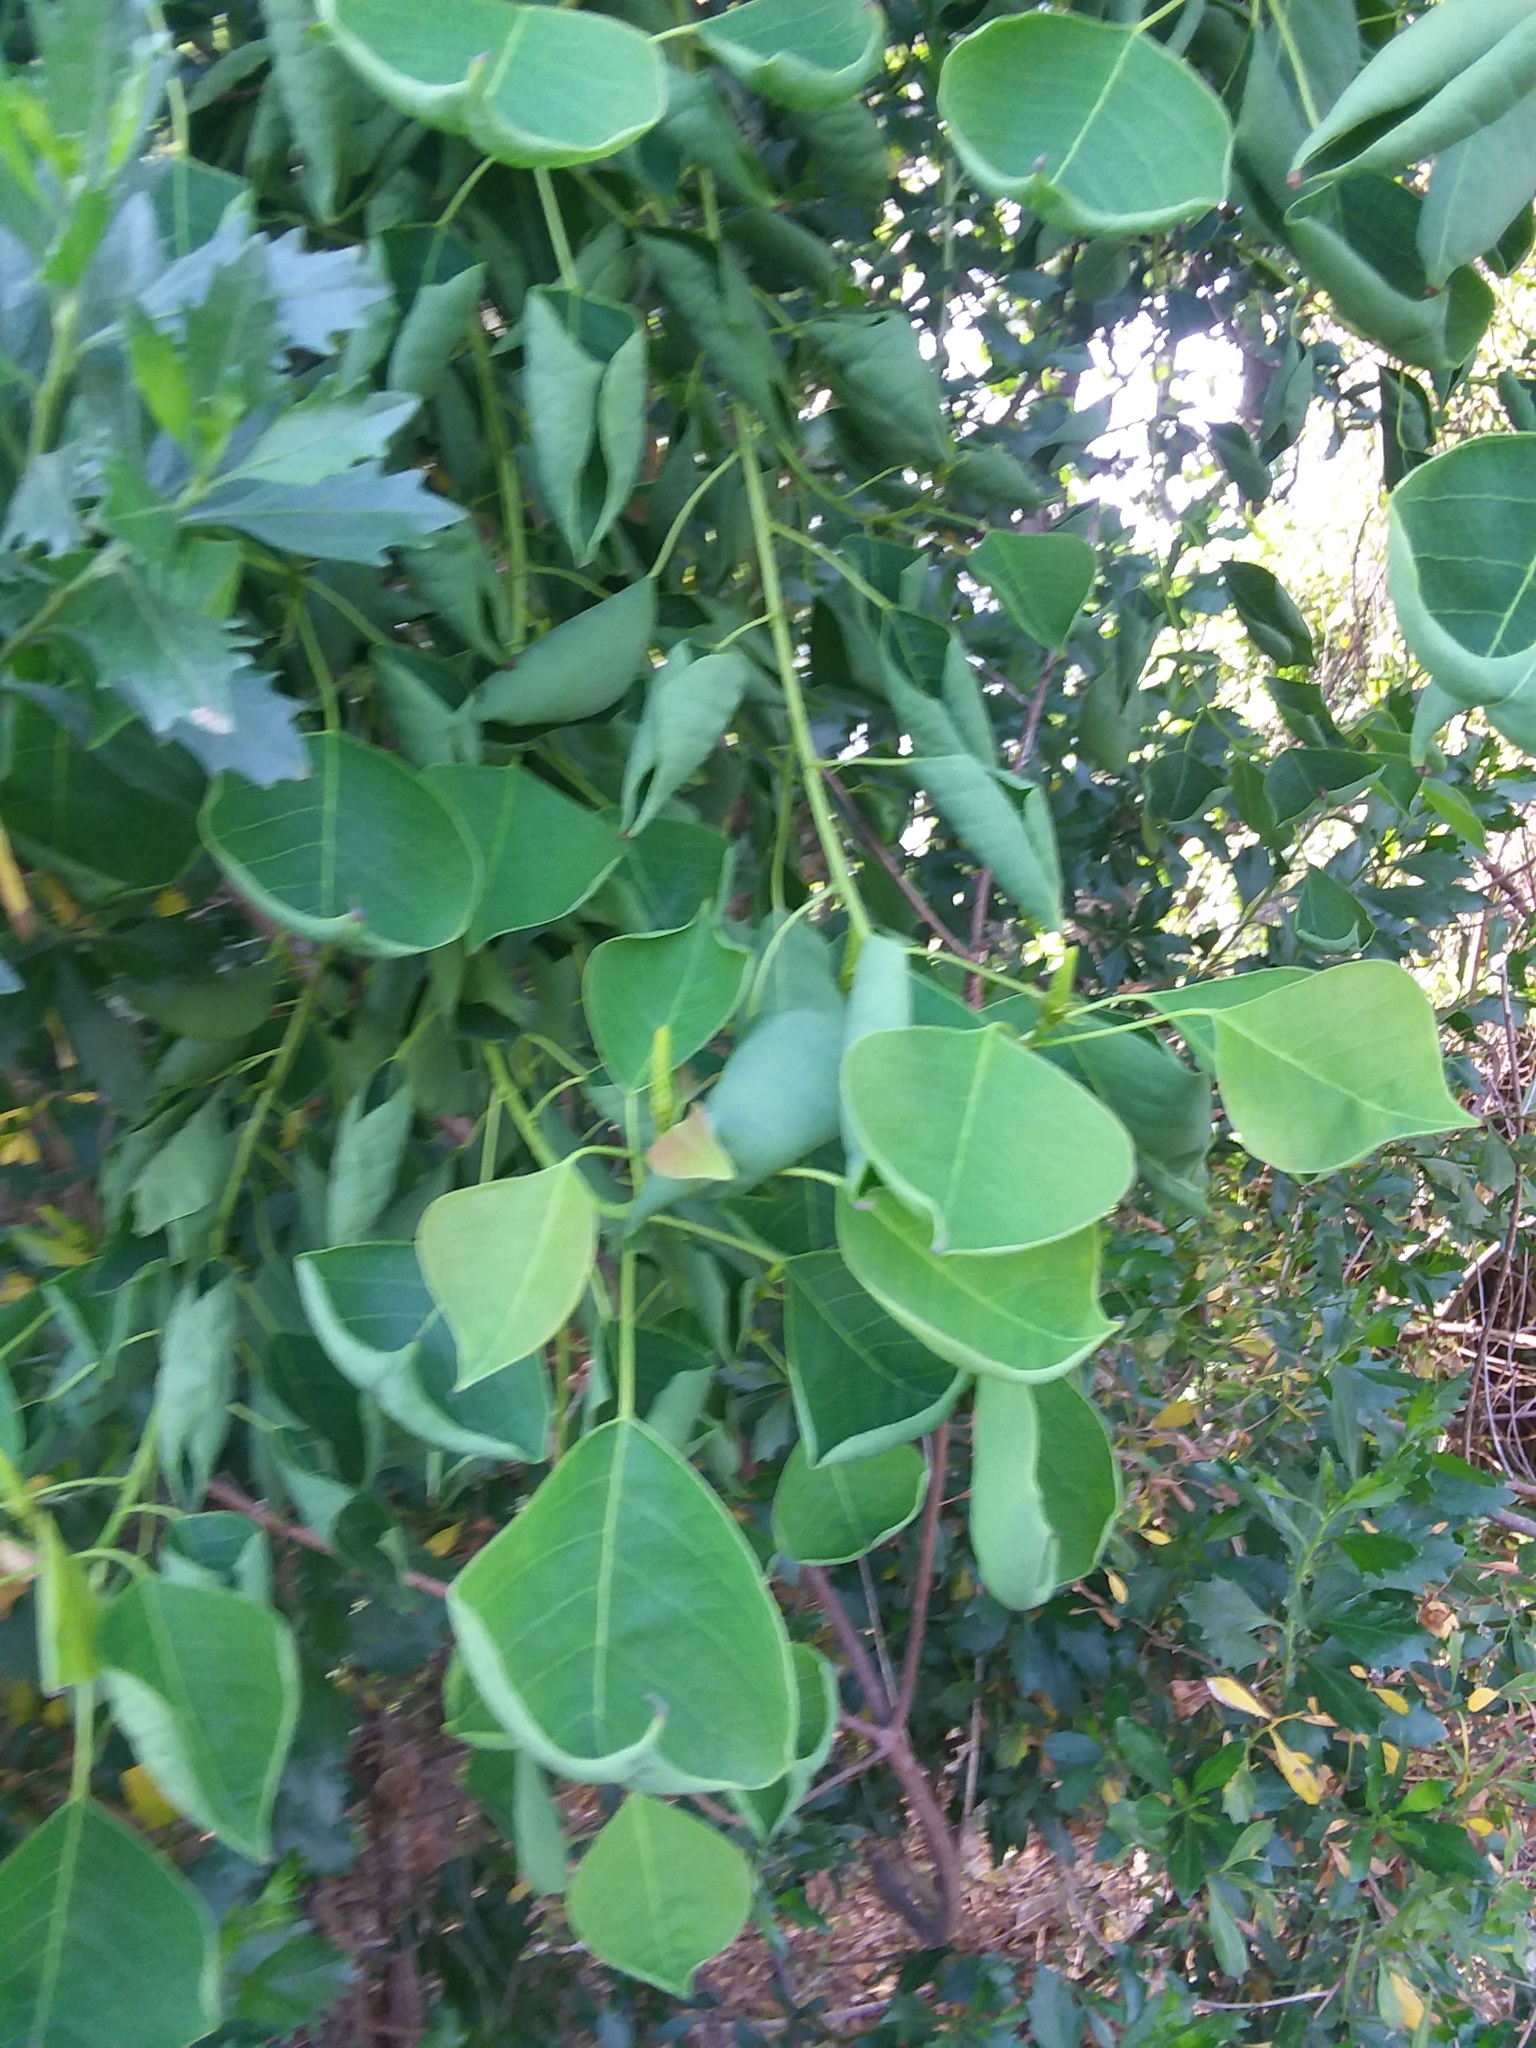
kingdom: Plantae
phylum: Tracheophyta
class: Magnoliopsida
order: Malpighiales
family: Euphorbiaceae
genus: Triadica
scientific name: Triadica sebifera
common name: Chinese tallow
